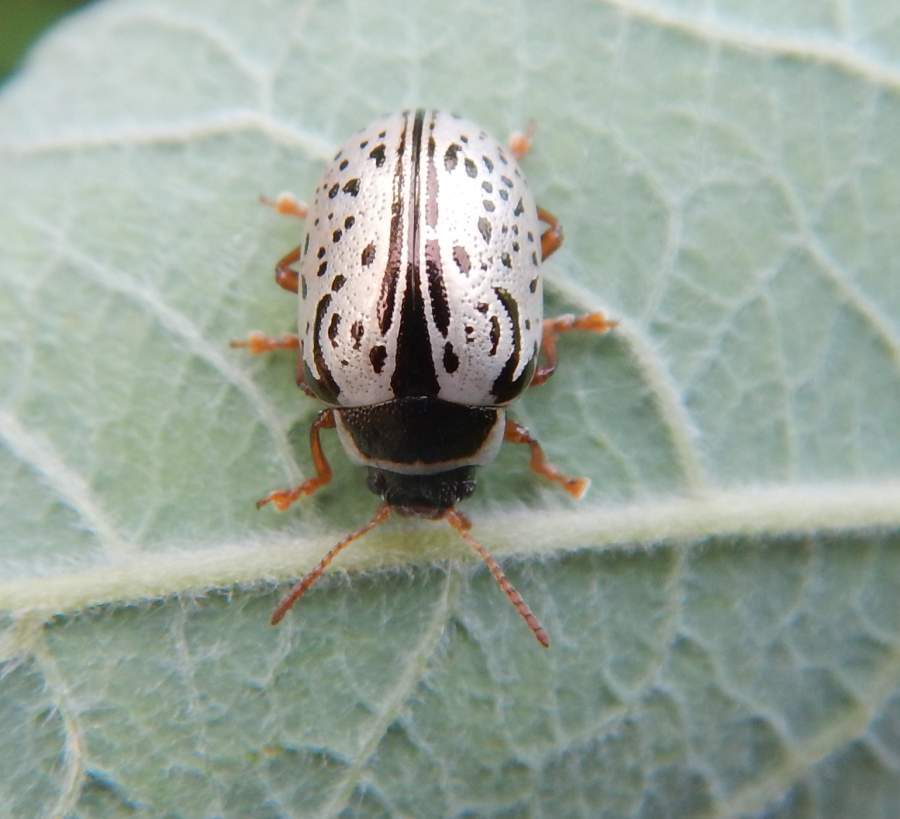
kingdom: Animalia
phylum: Arthropoda
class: Insecta
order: Coleoptera
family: Chrysomelidae
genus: Calligrapha
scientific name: Calligrapha multipunctata
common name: Common willow calligrapher beetle
